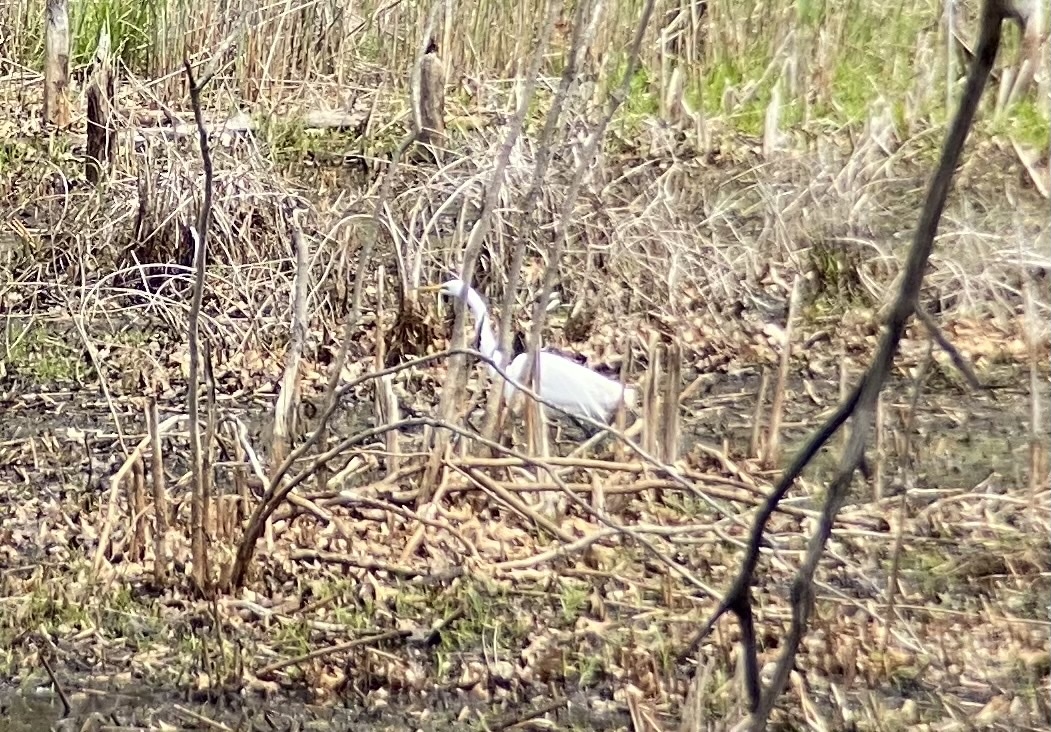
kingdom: Animalia
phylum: Chordata
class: Aves
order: Pelecaniformes
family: Ardeidae
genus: Ardea
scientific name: Ardea alba
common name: Great egret
